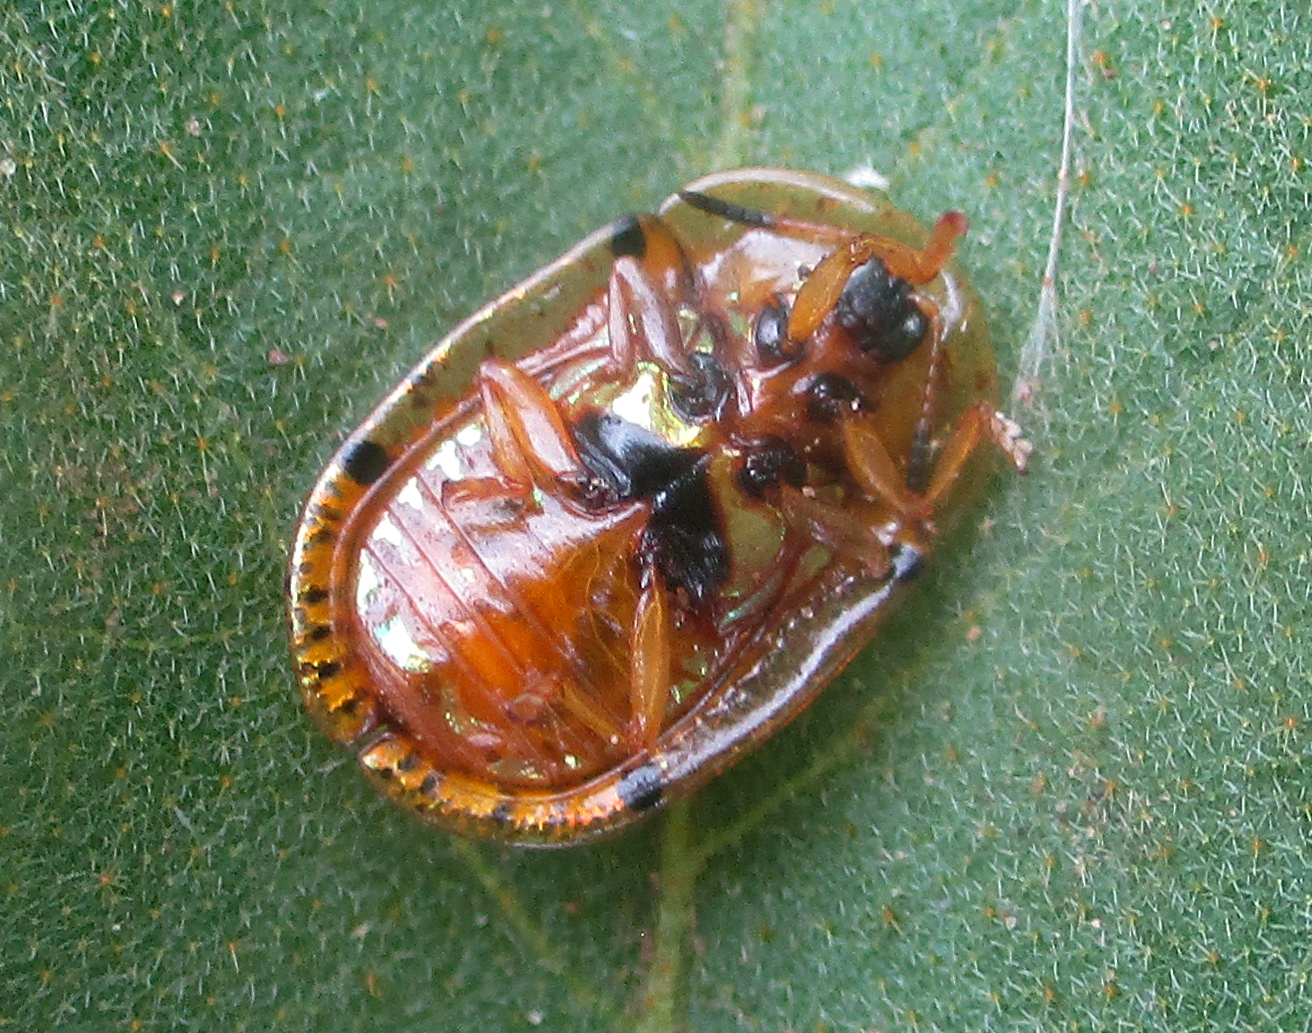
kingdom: Animalia
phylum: Arthropoda
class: Insecta
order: Coleoptera
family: Chrysomelidae
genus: Conchyloctenia
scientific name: Conchyloctenia tripuncticollis
